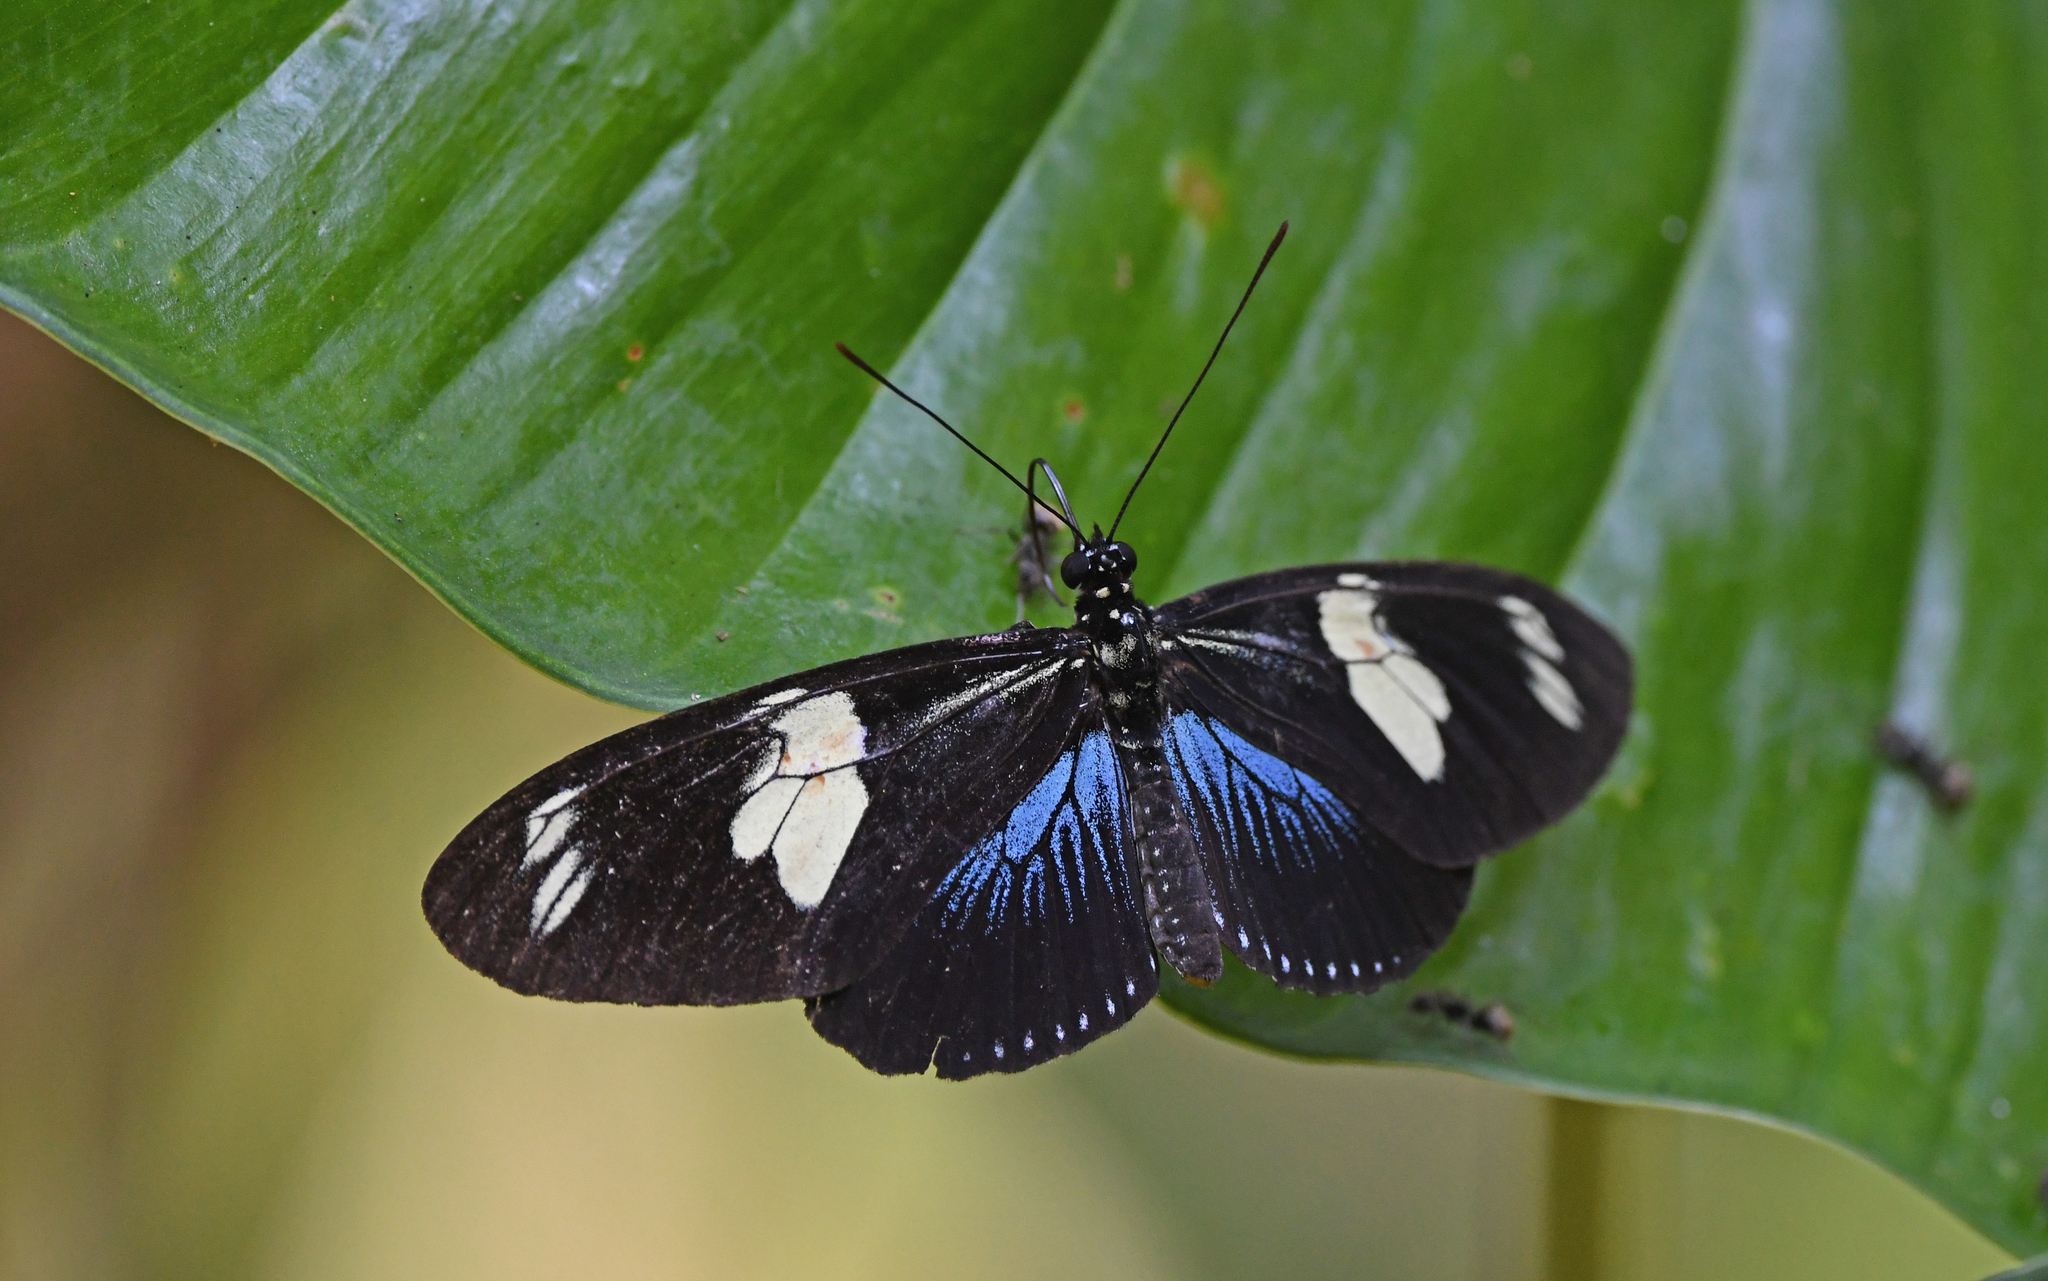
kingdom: Animalia
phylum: Arthropoda
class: Insecta
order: Lepidoptera
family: Nymphalidae
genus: Heliconius
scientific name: Heliconius doris
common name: Doris longwing
